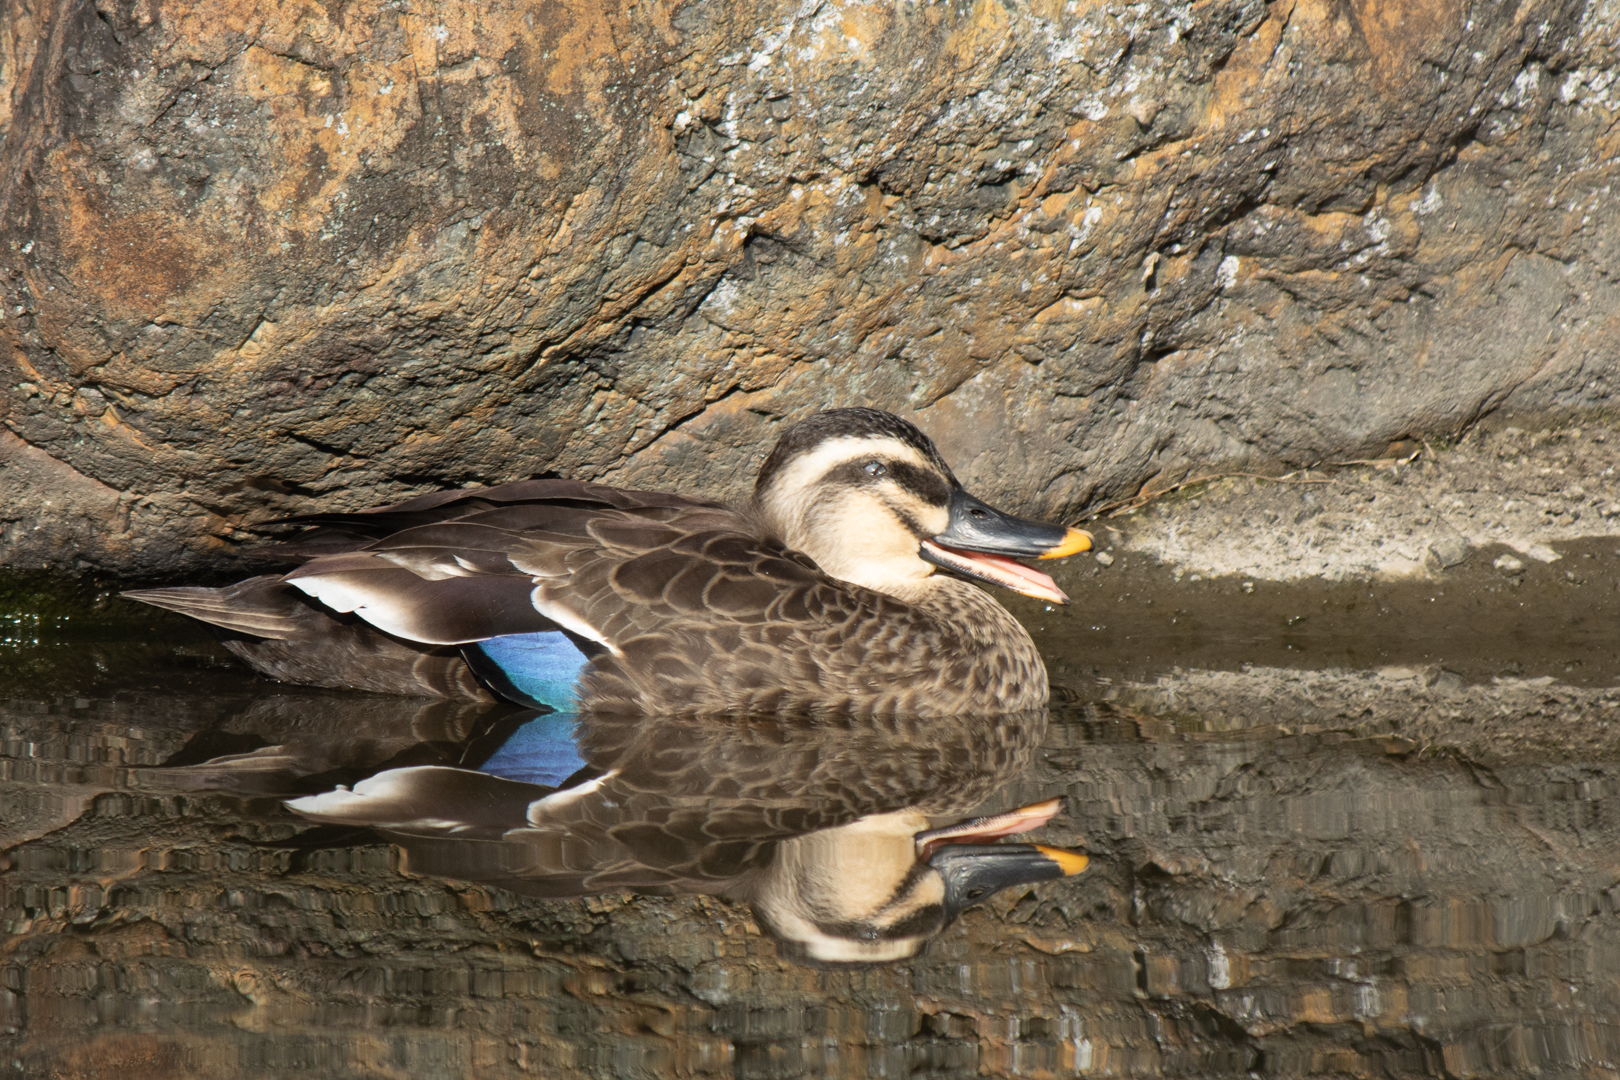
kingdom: Animalia
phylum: Chordata
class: Aves
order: Anseriformes
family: Anatidae
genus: Anas
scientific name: Anas zonorhyncha
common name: Eastern spot-billed duck
